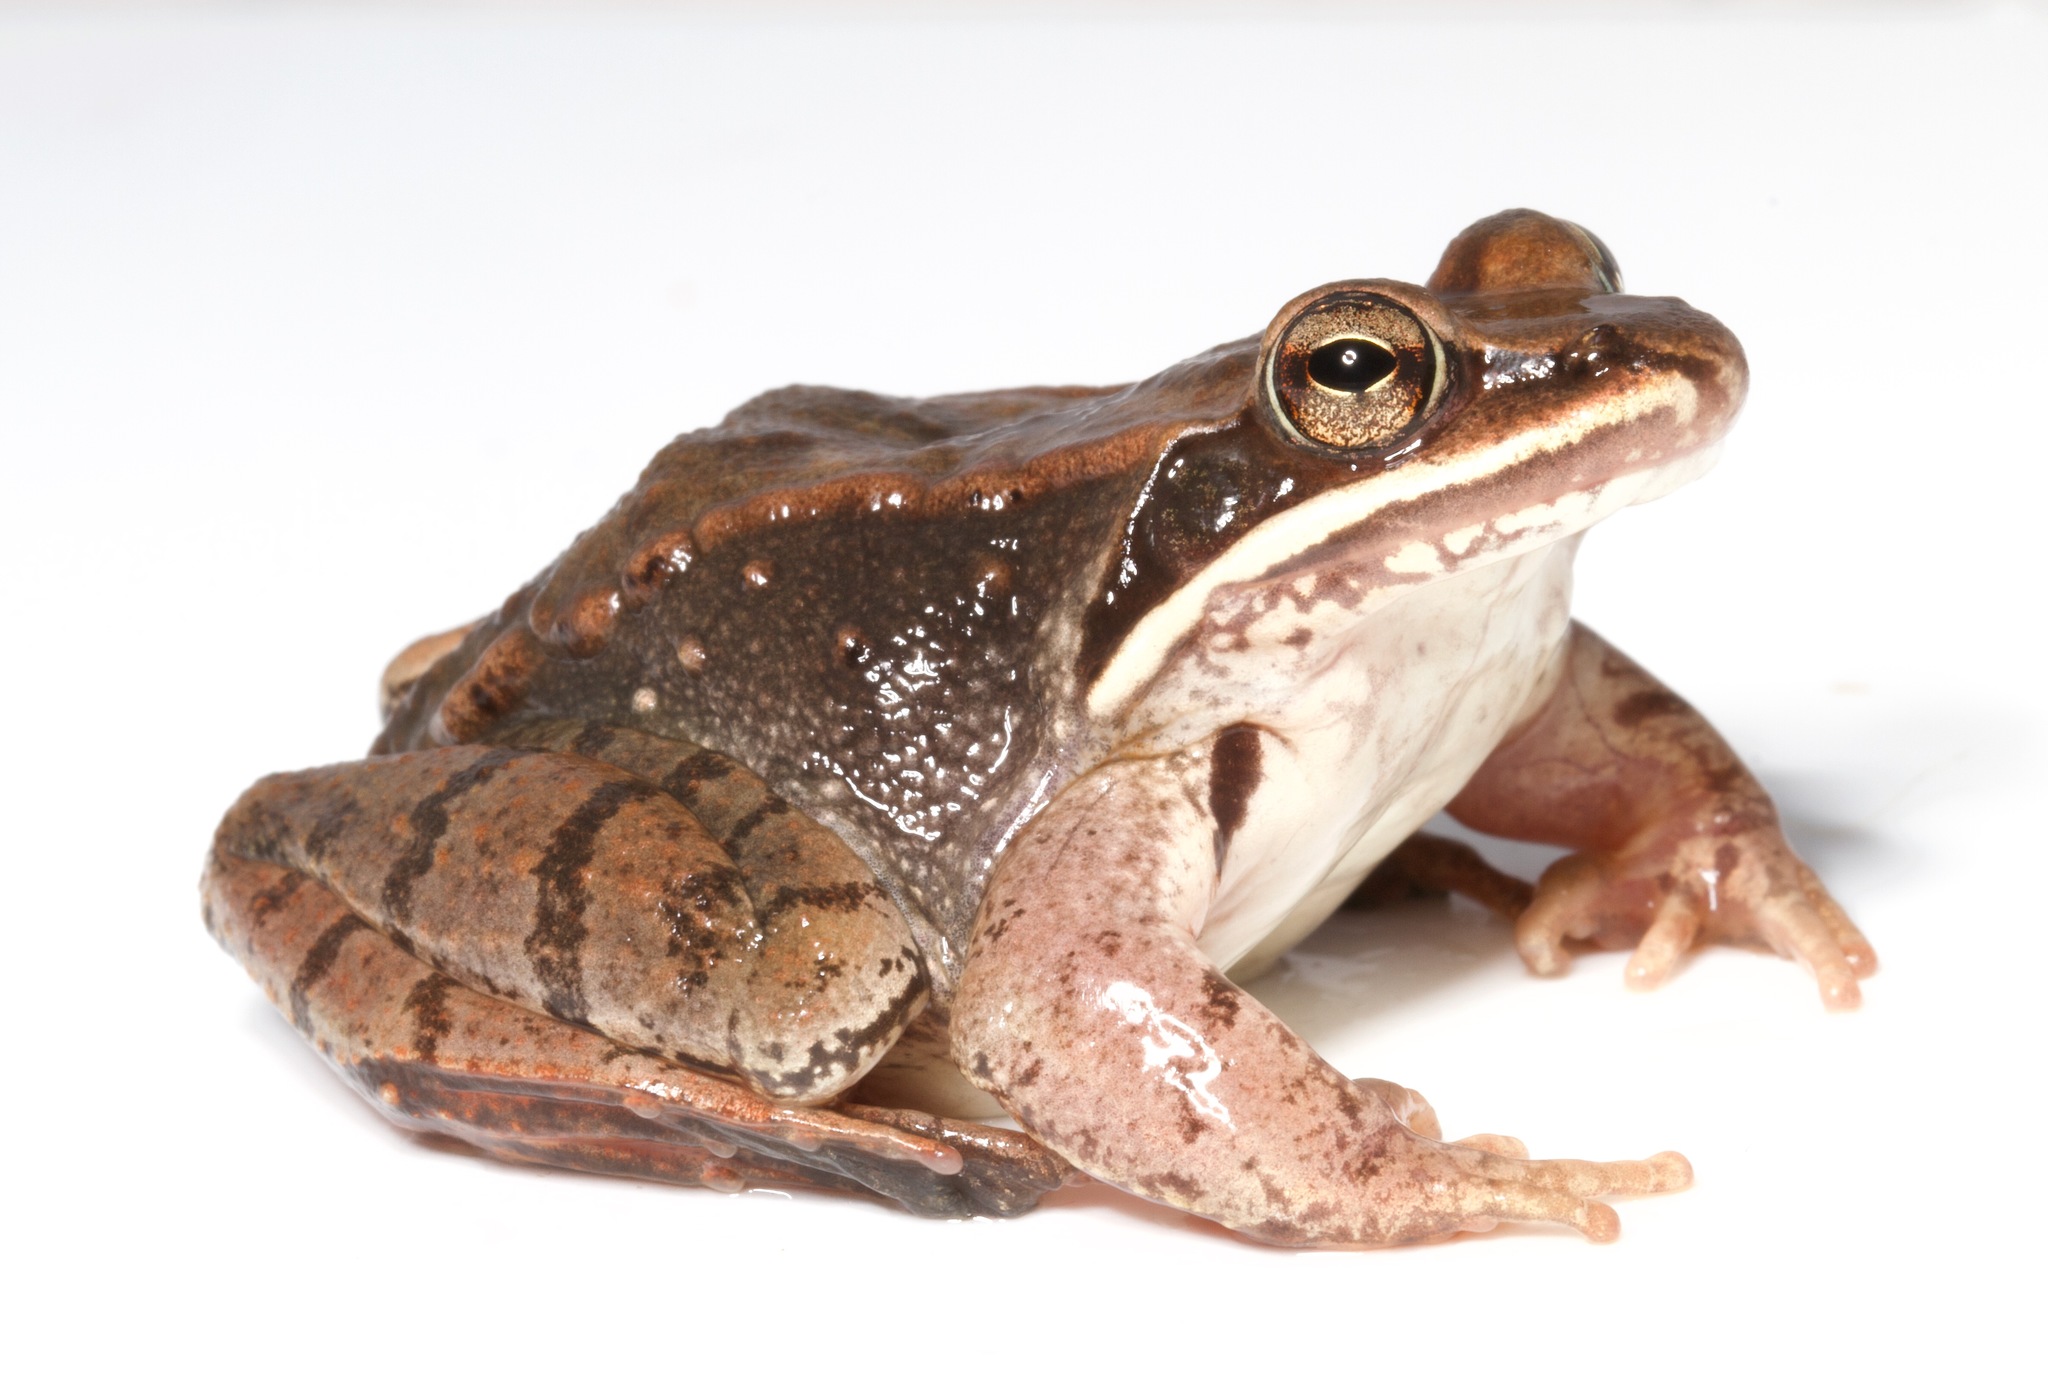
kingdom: Animalia
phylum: Chordata
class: Amphibia
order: Anura
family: Ranidae
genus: Lithobates
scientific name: Lithobates sylvaticus
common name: Wood frog
